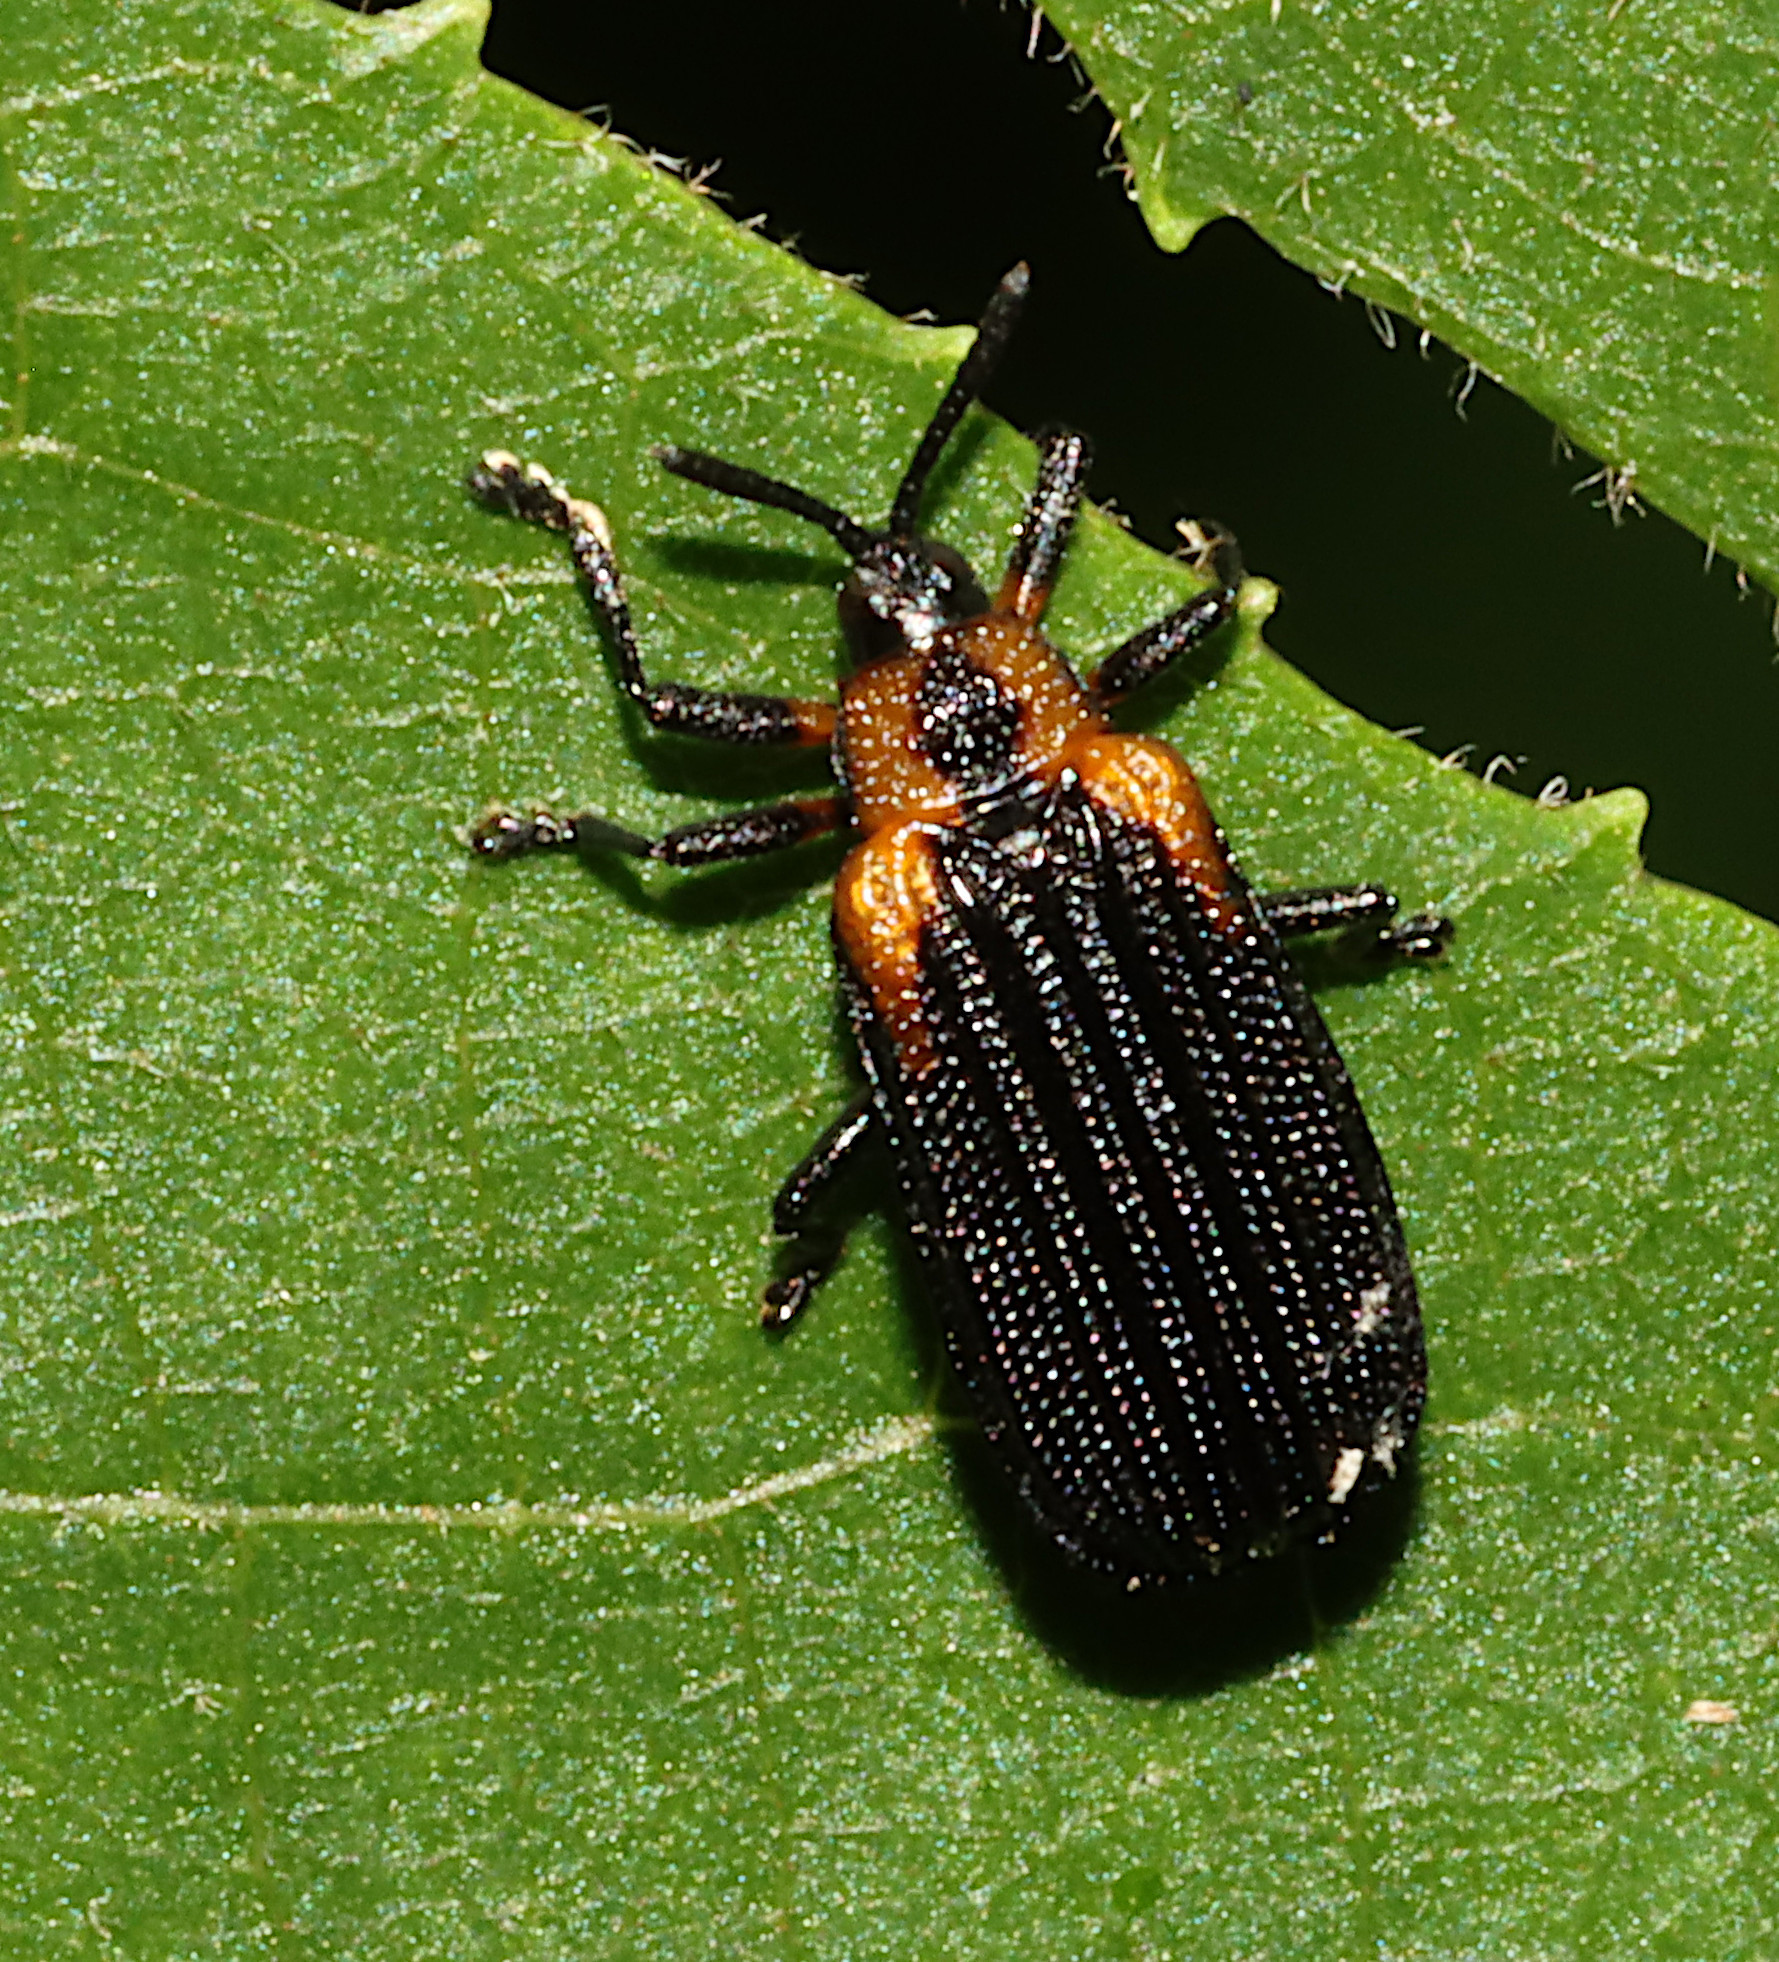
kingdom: Animalia
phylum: Arthropoda
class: Insecta
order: Coleoptera
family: Chrysomelidae
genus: Odontota
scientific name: Odontota scapularis
